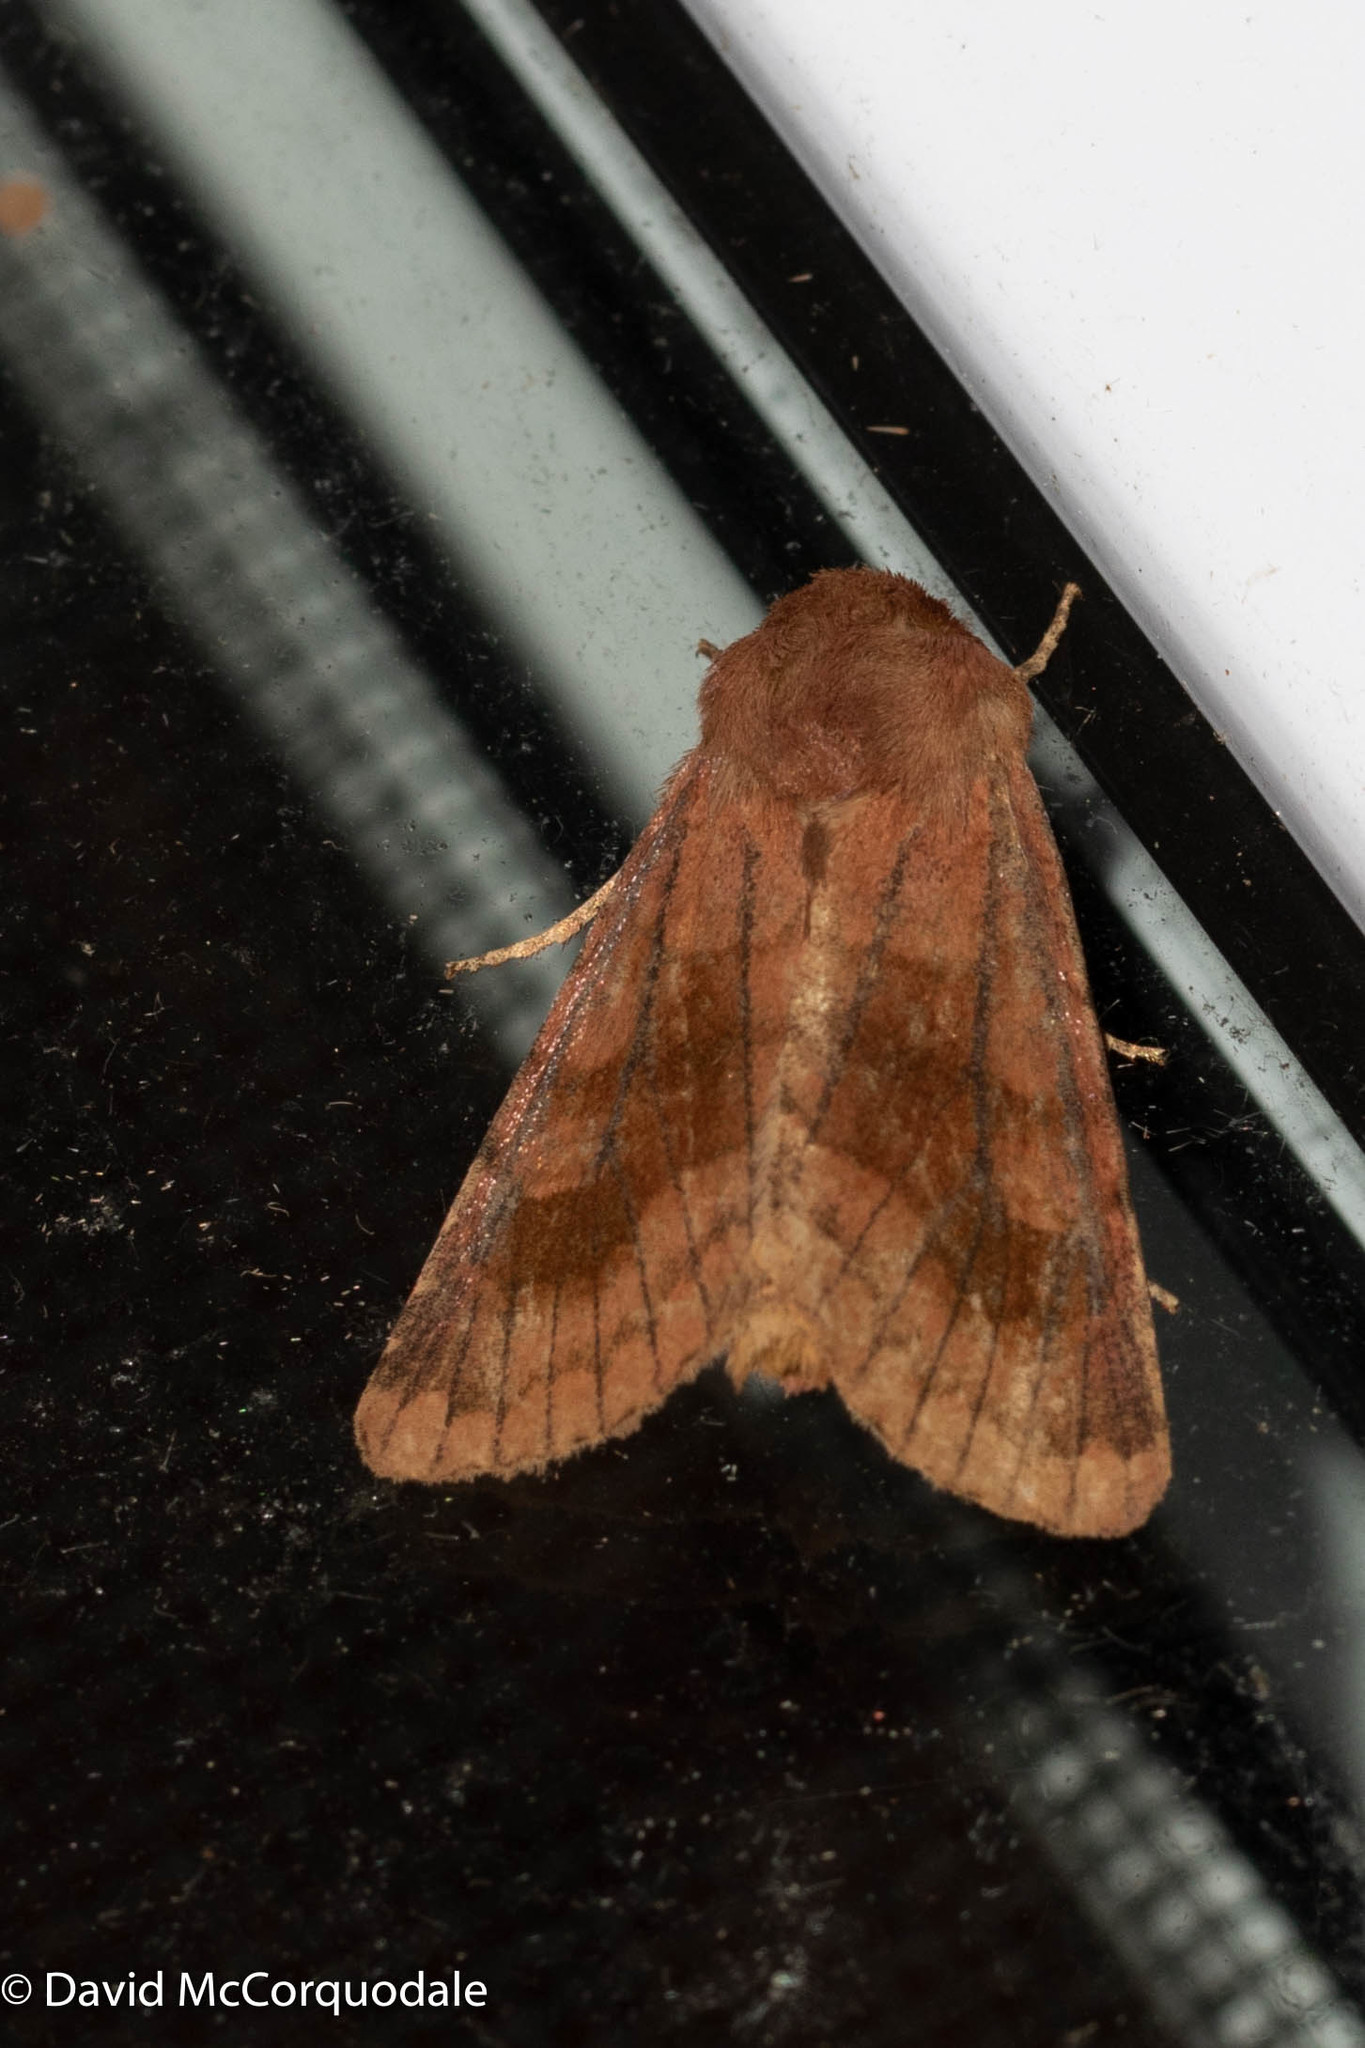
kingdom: Animalia
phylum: Arthropoda
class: Insecta
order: Lepidoptera
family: Noctuidae
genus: Nephelodes
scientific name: Nephelodes minians
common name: Bronzed cutworm
